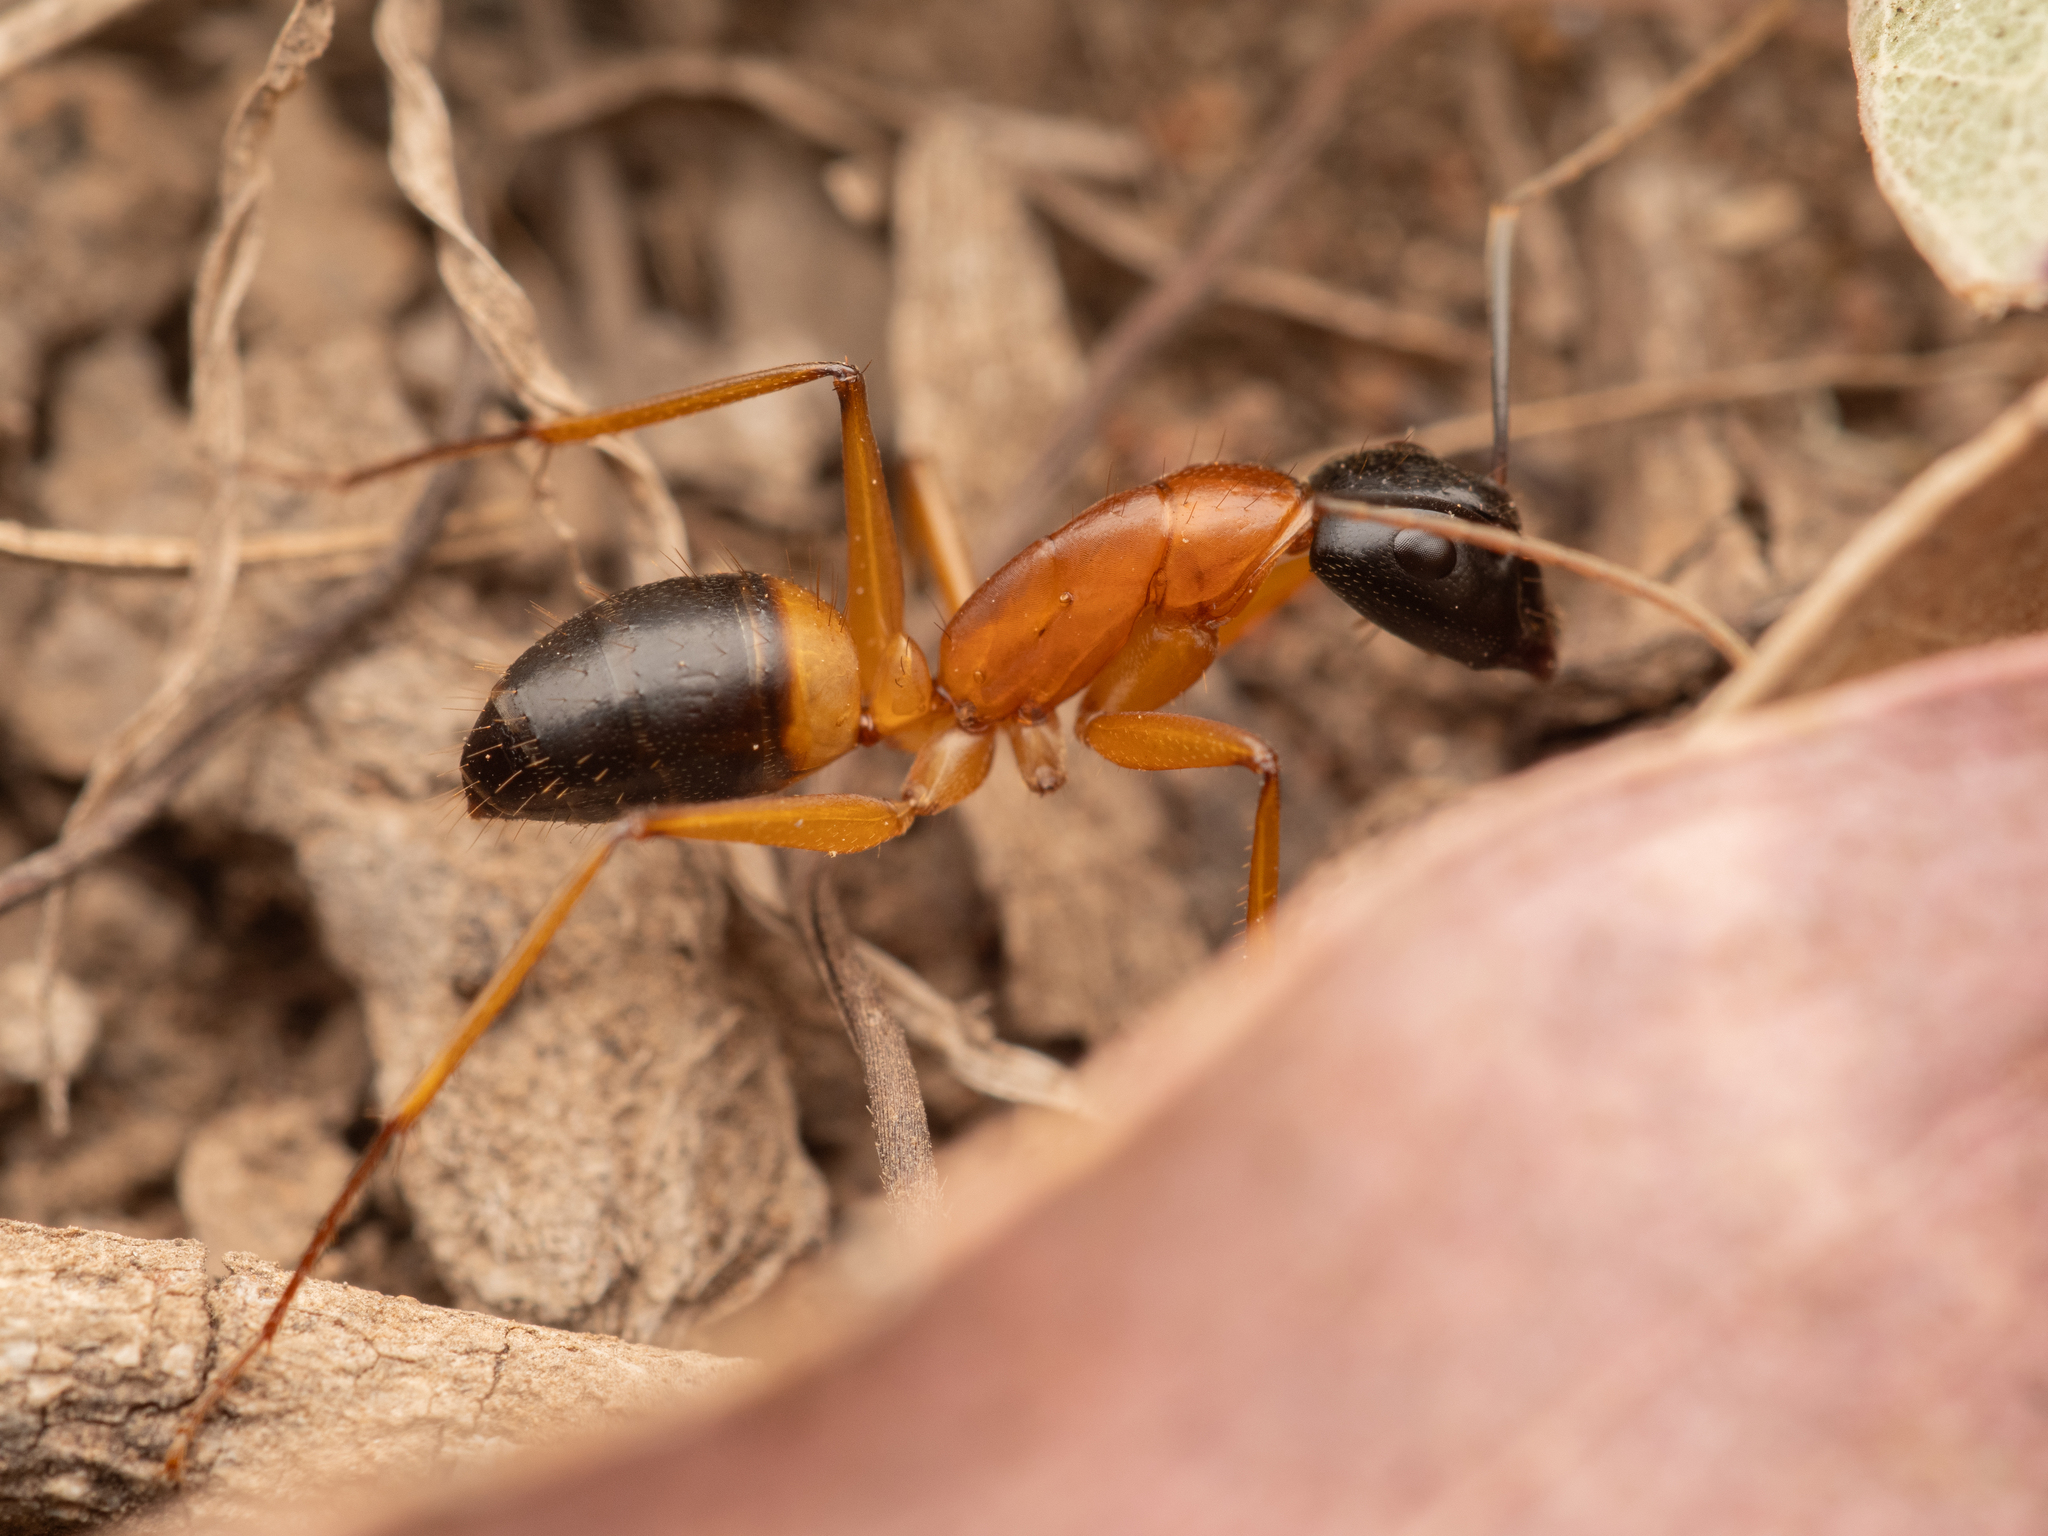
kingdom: Animalia
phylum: Arthropoda
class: Insecta
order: Hymenoptera
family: Formicidae
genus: Camponotus
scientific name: Camponotus consobrinus
